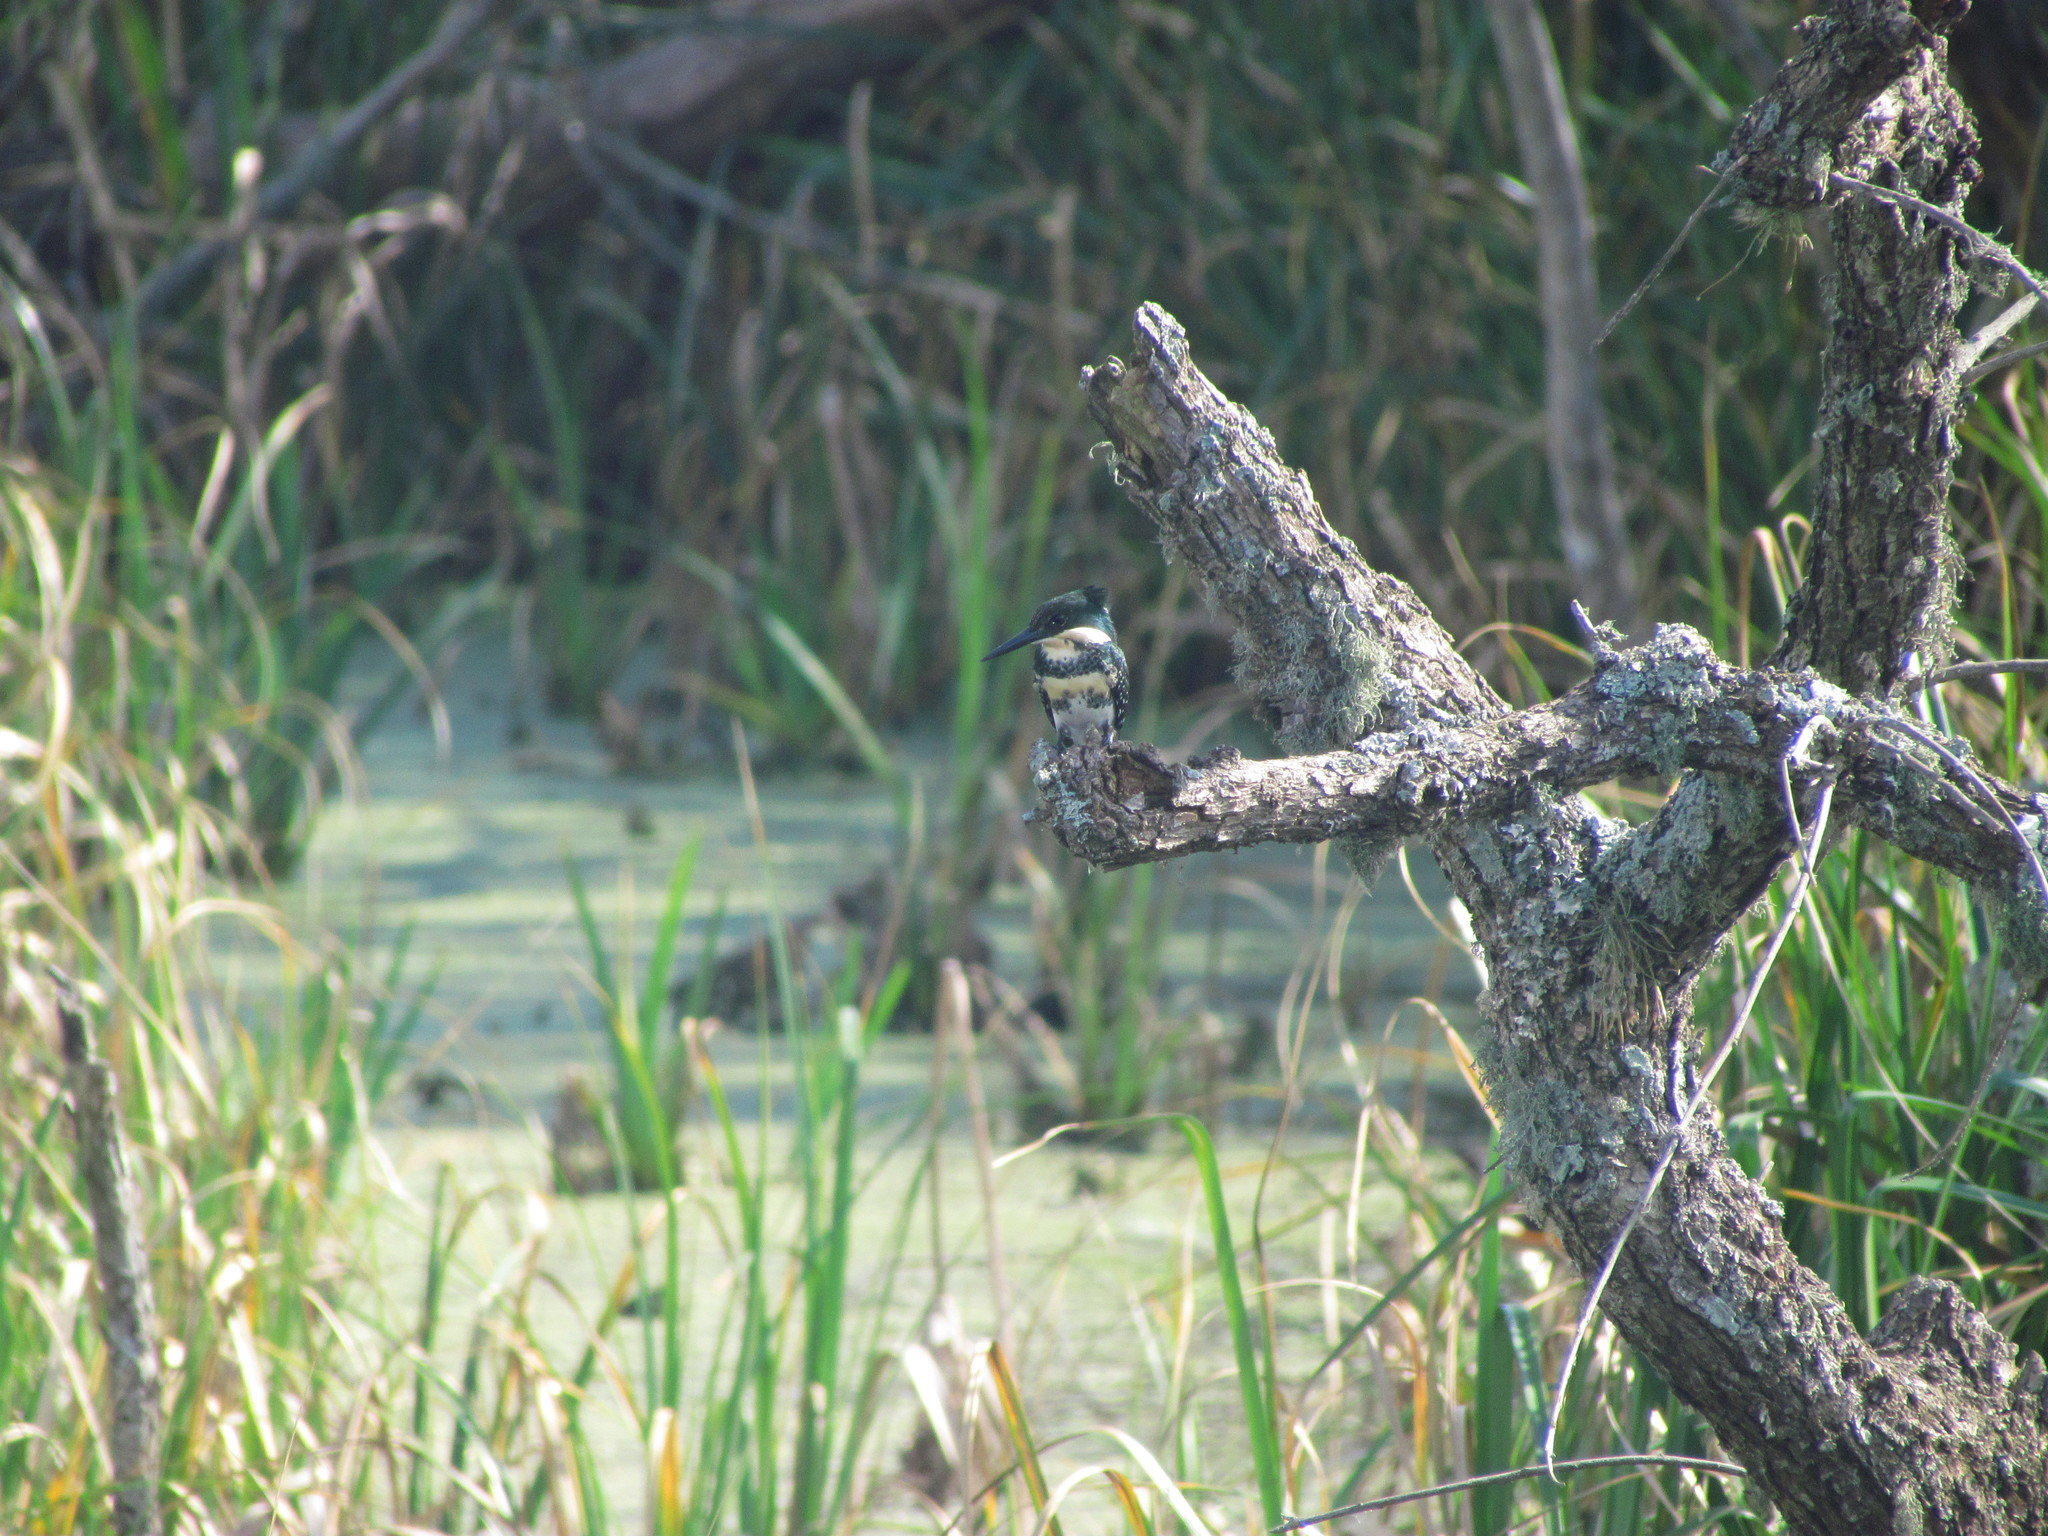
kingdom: Animalia
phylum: Chordata
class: Aves
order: Coraciiformes
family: Alcedinidae
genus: Chloroceryle
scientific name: Chloroceryle americana
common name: Green kingfisher
